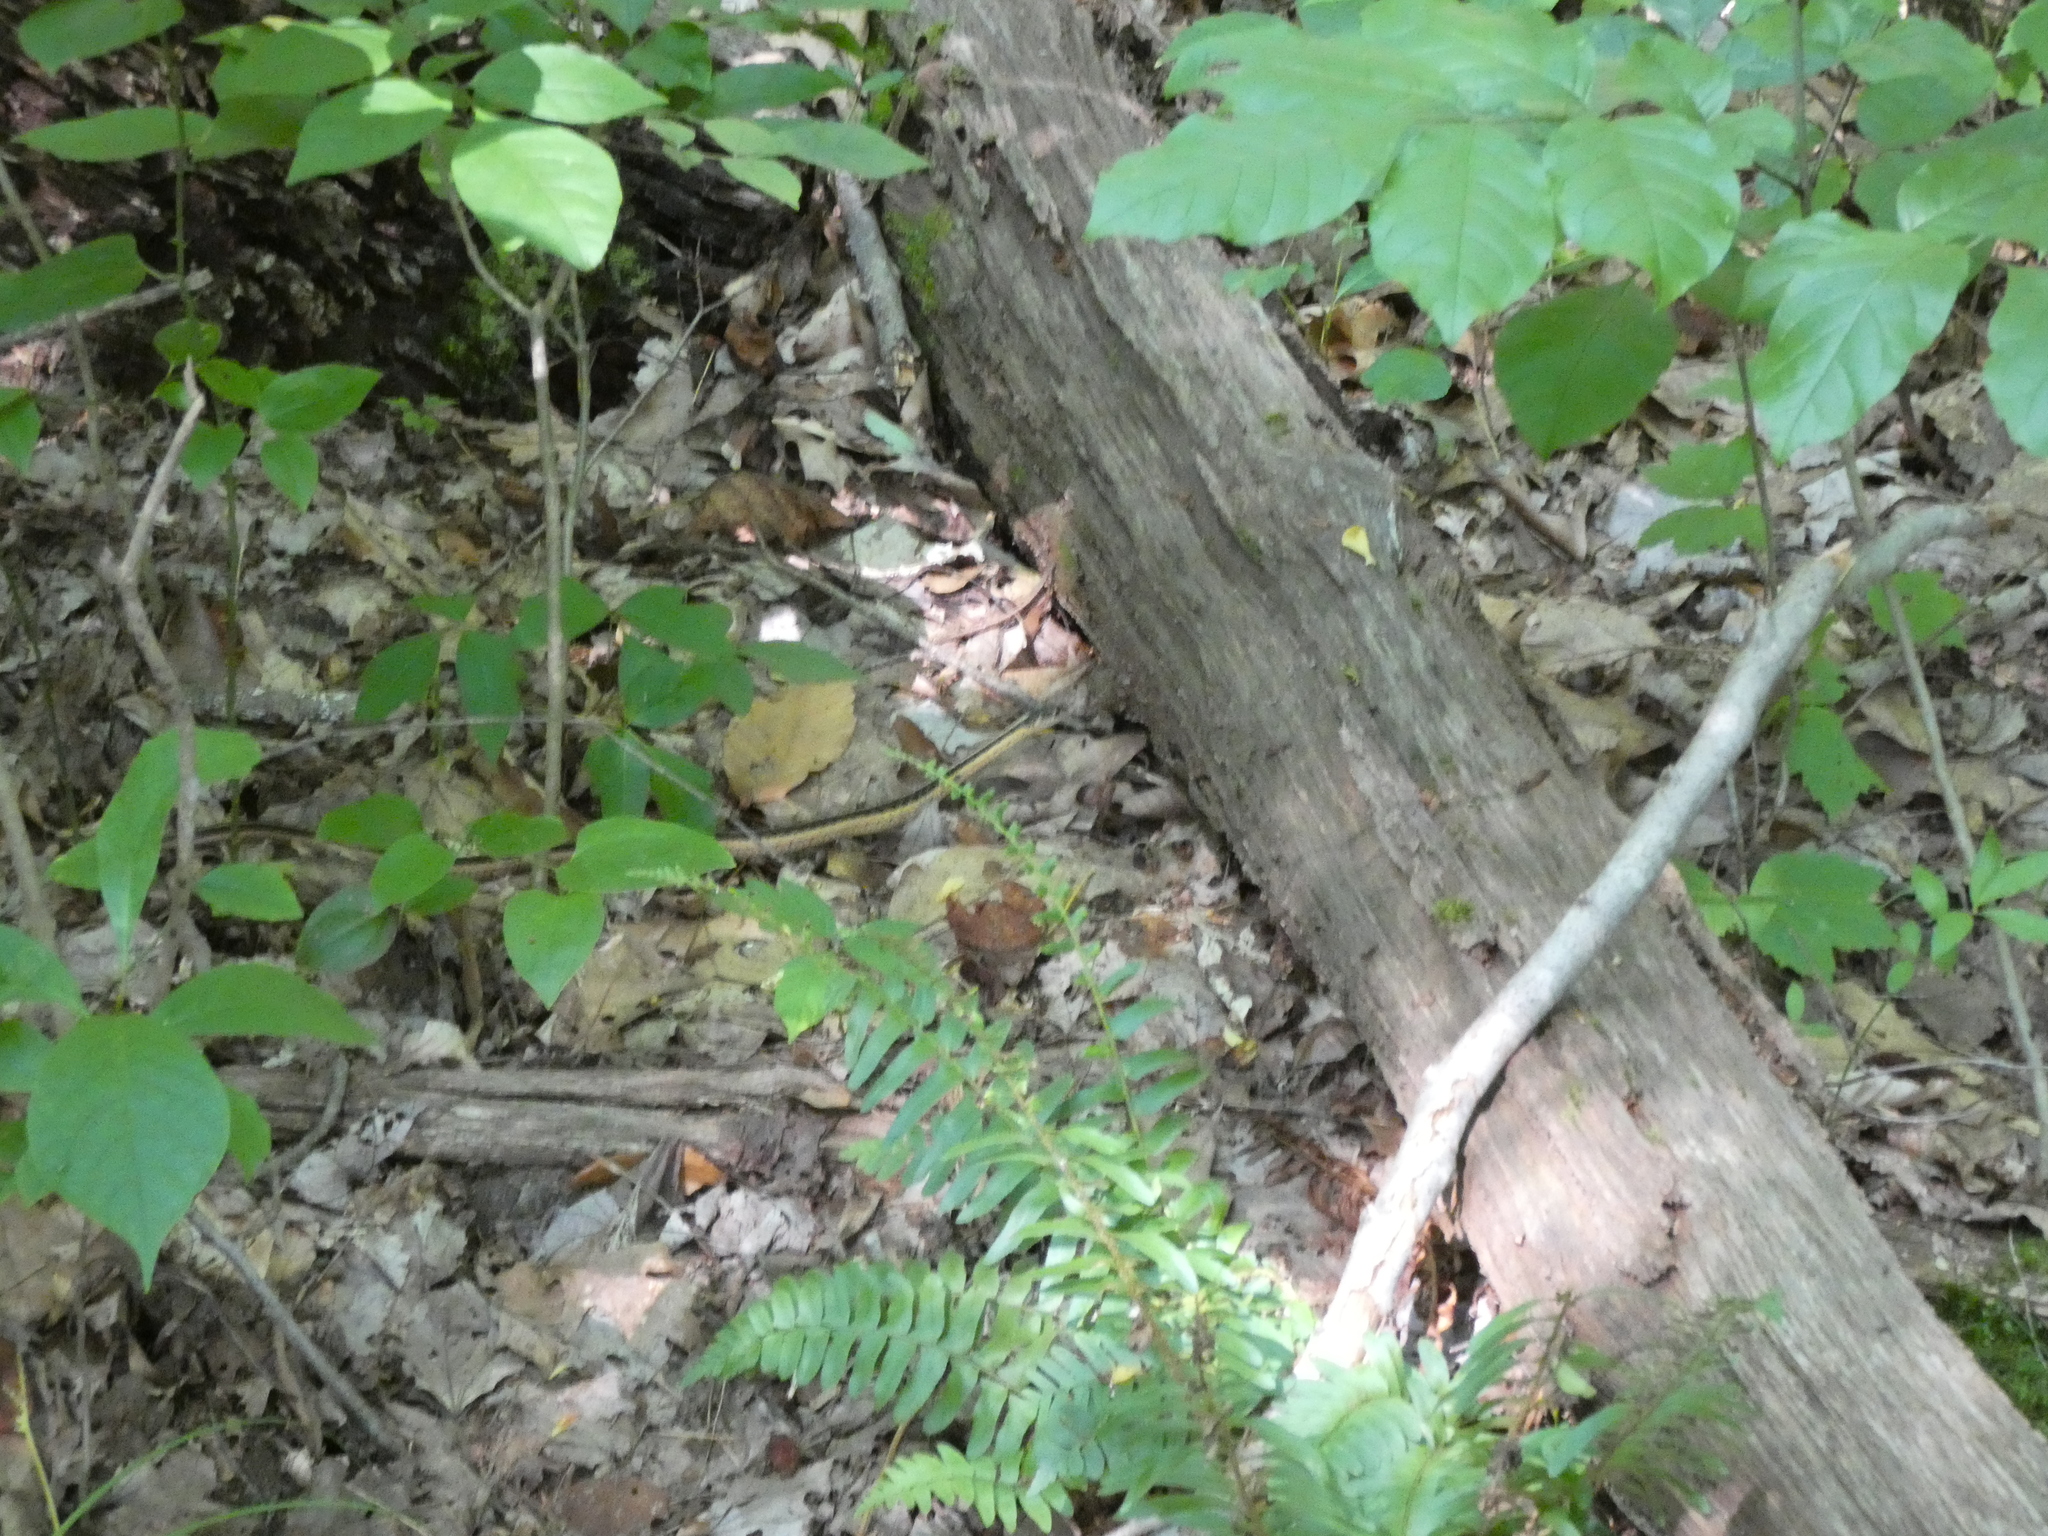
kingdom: Animalia
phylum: Chordata
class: Squamata
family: Colubridae
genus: Thamnophis
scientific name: Thamnophis sirtalis
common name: Common garter snake
